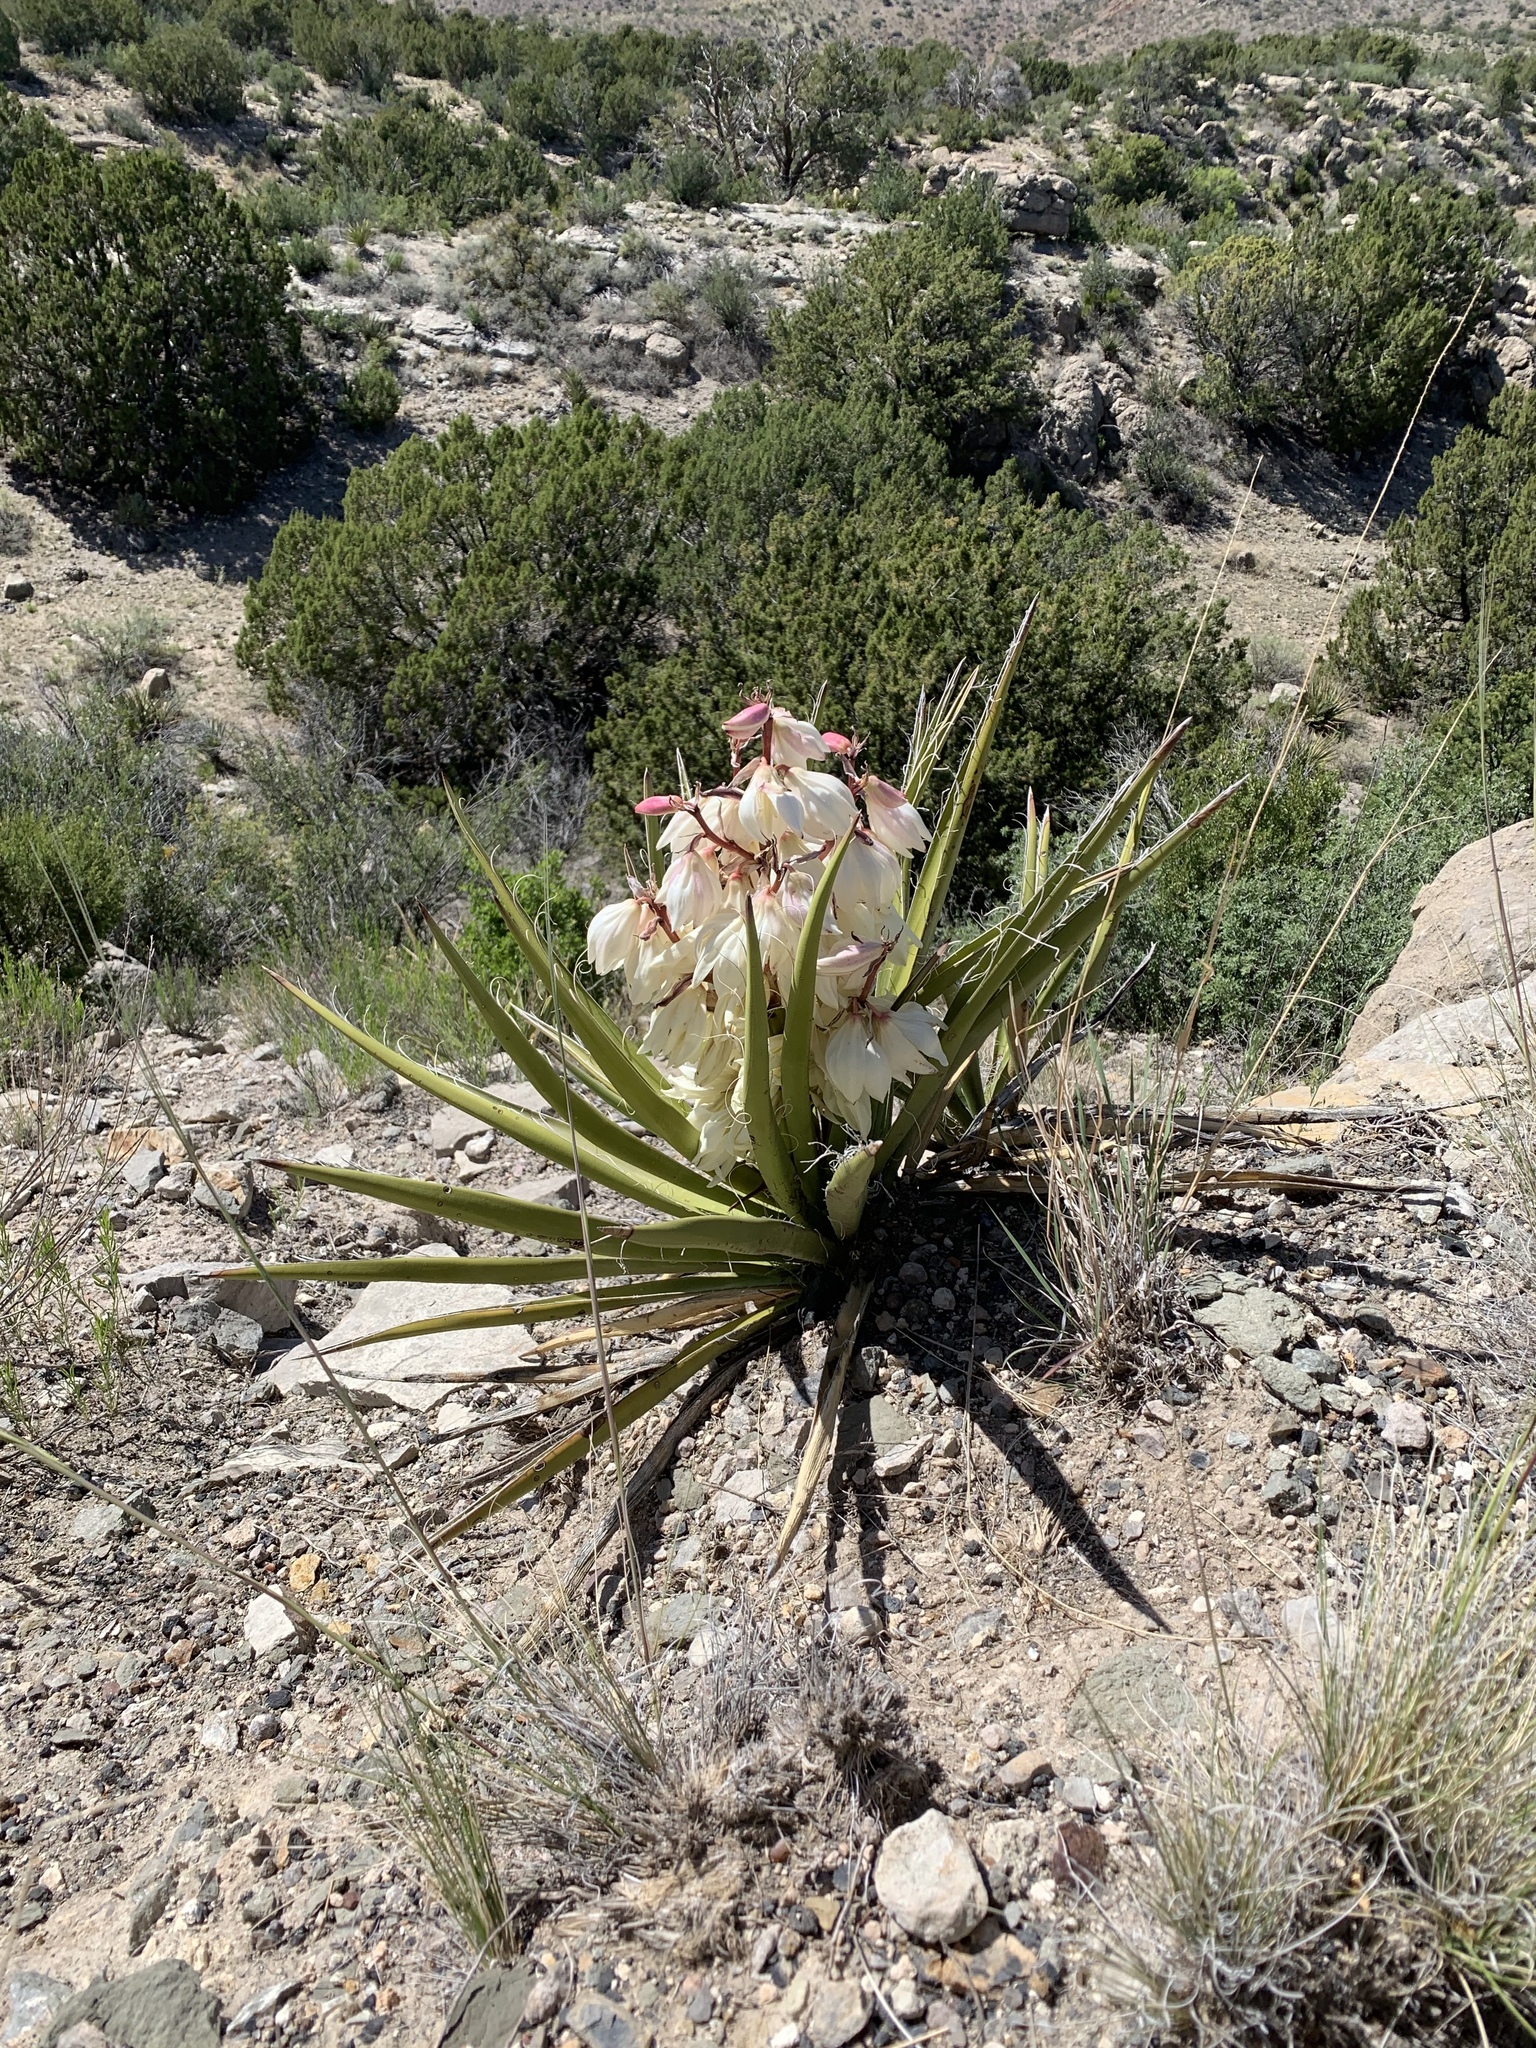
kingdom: Plantae
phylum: Tracheophyta
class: Liliopsida
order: Asparagales
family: Asparagaceae
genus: Yucca
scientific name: Yucca baccata
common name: Banana yucca
